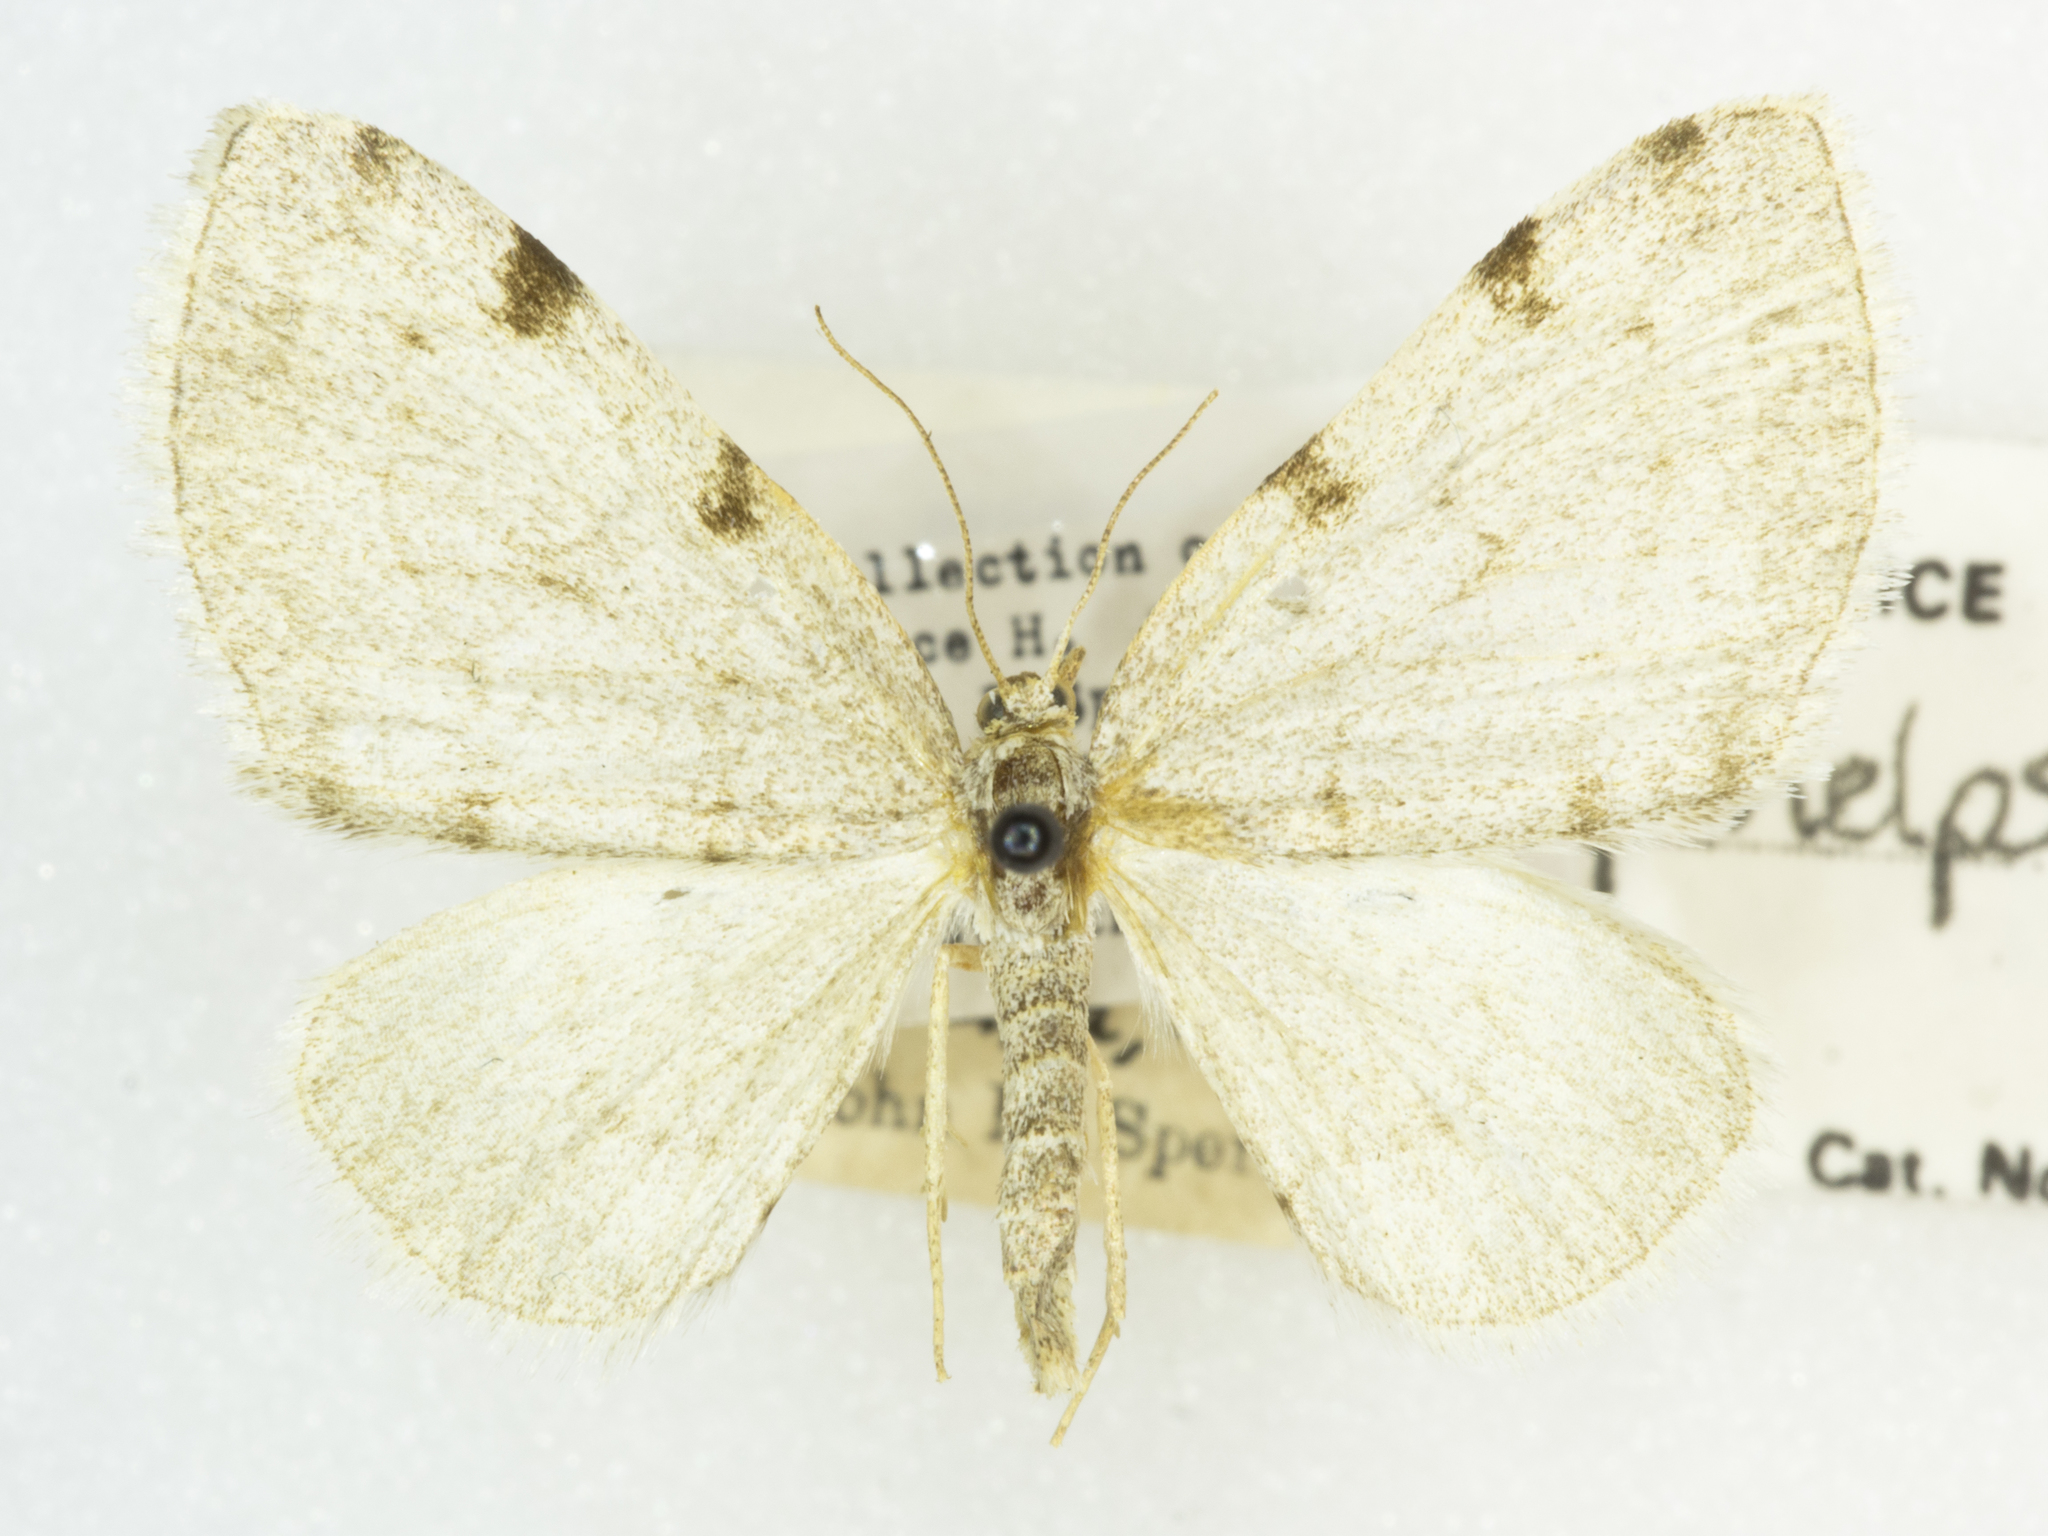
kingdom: Animalia
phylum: Arthropoda
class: Insecta
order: Lepidoptera
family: Geometridae
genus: Heterophleps
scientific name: Heterophleps refusaria
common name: Three-patched bigwing
